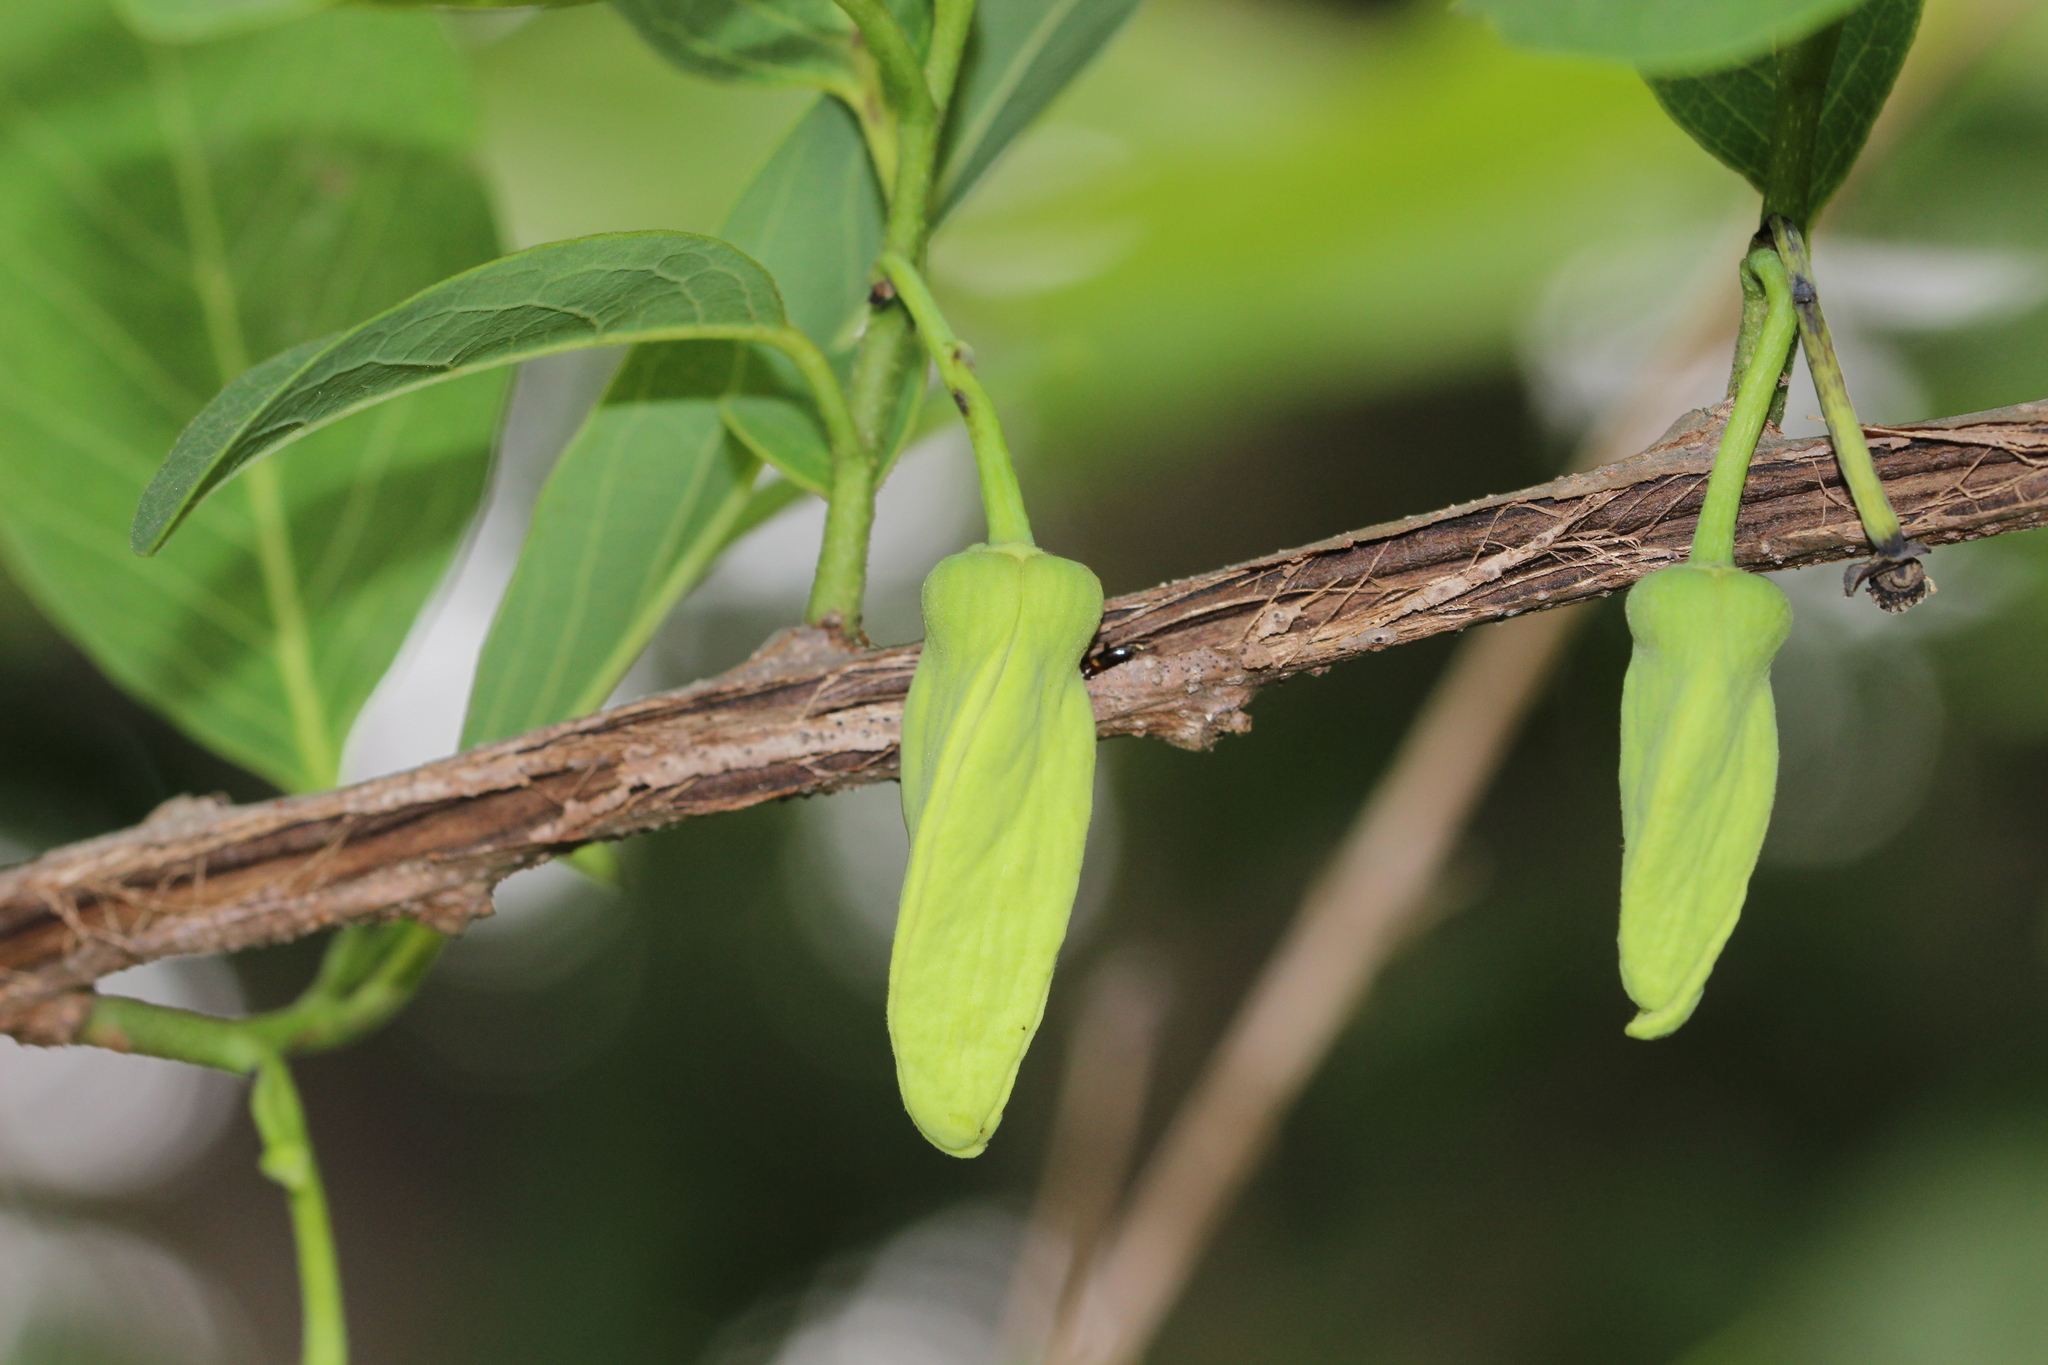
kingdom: Plantae
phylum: Tracheophyta
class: Magnoliopsida
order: Magnoliales
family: Annonaceae
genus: Annona
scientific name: Annona squamosa
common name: Custard-apple
